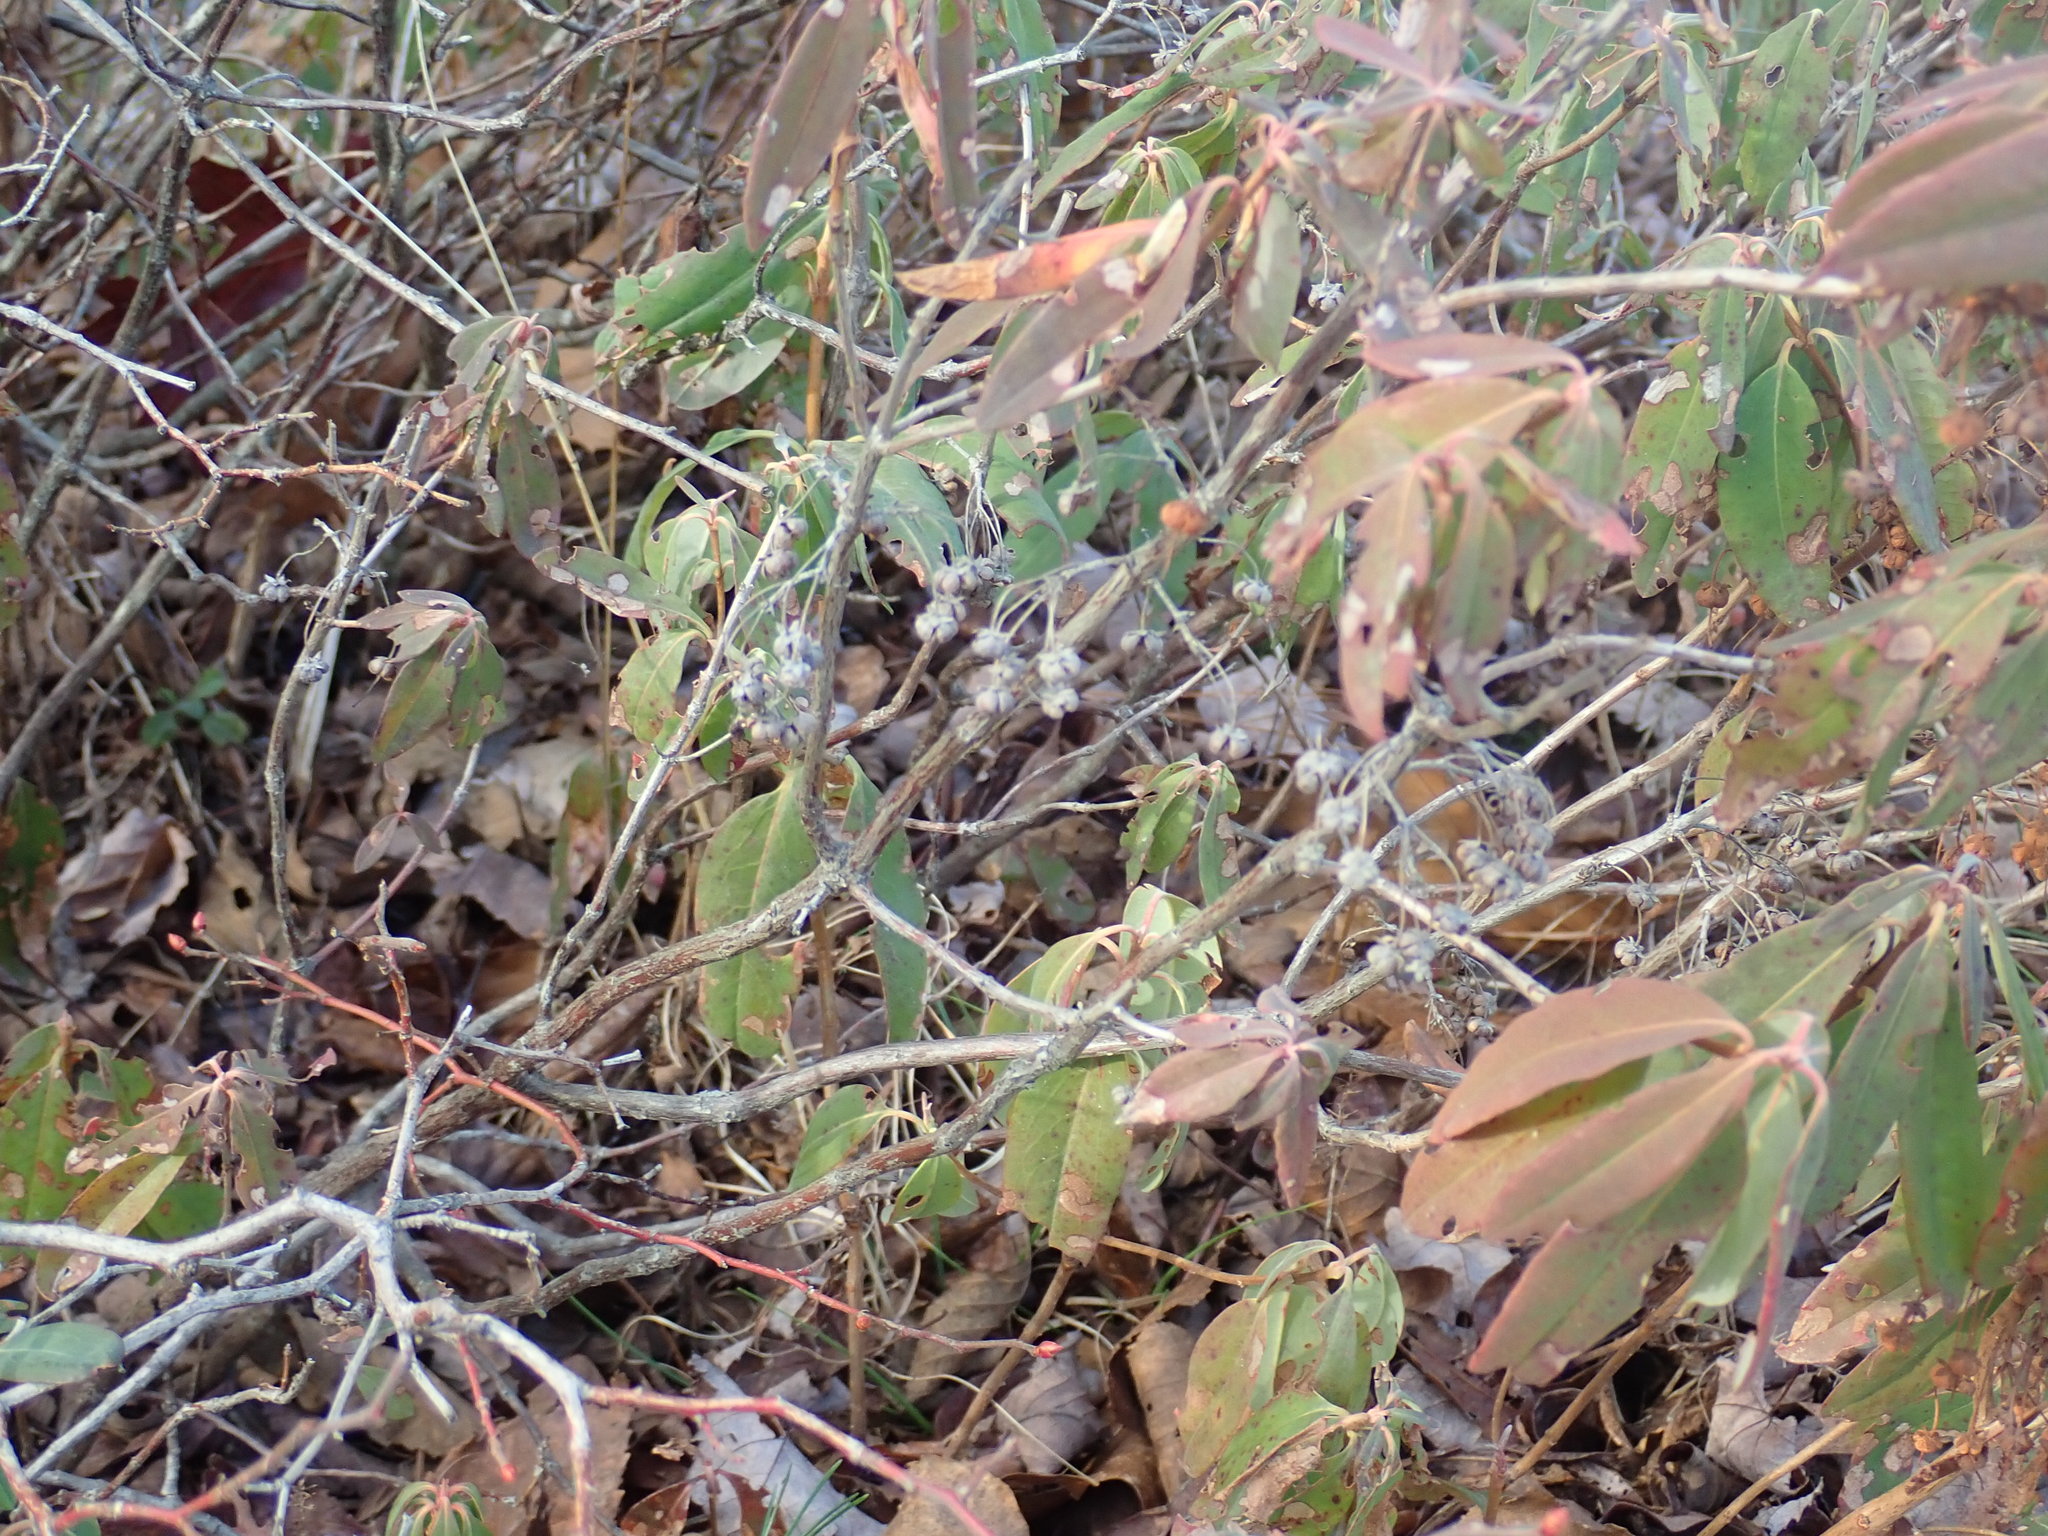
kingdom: Plantae
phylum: Tracheophyta
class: Magnoliopsida
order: Ericales
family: Ericaceae
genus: Kalmia
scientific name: Kalmia angustifolia
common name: Sheep-laurel
